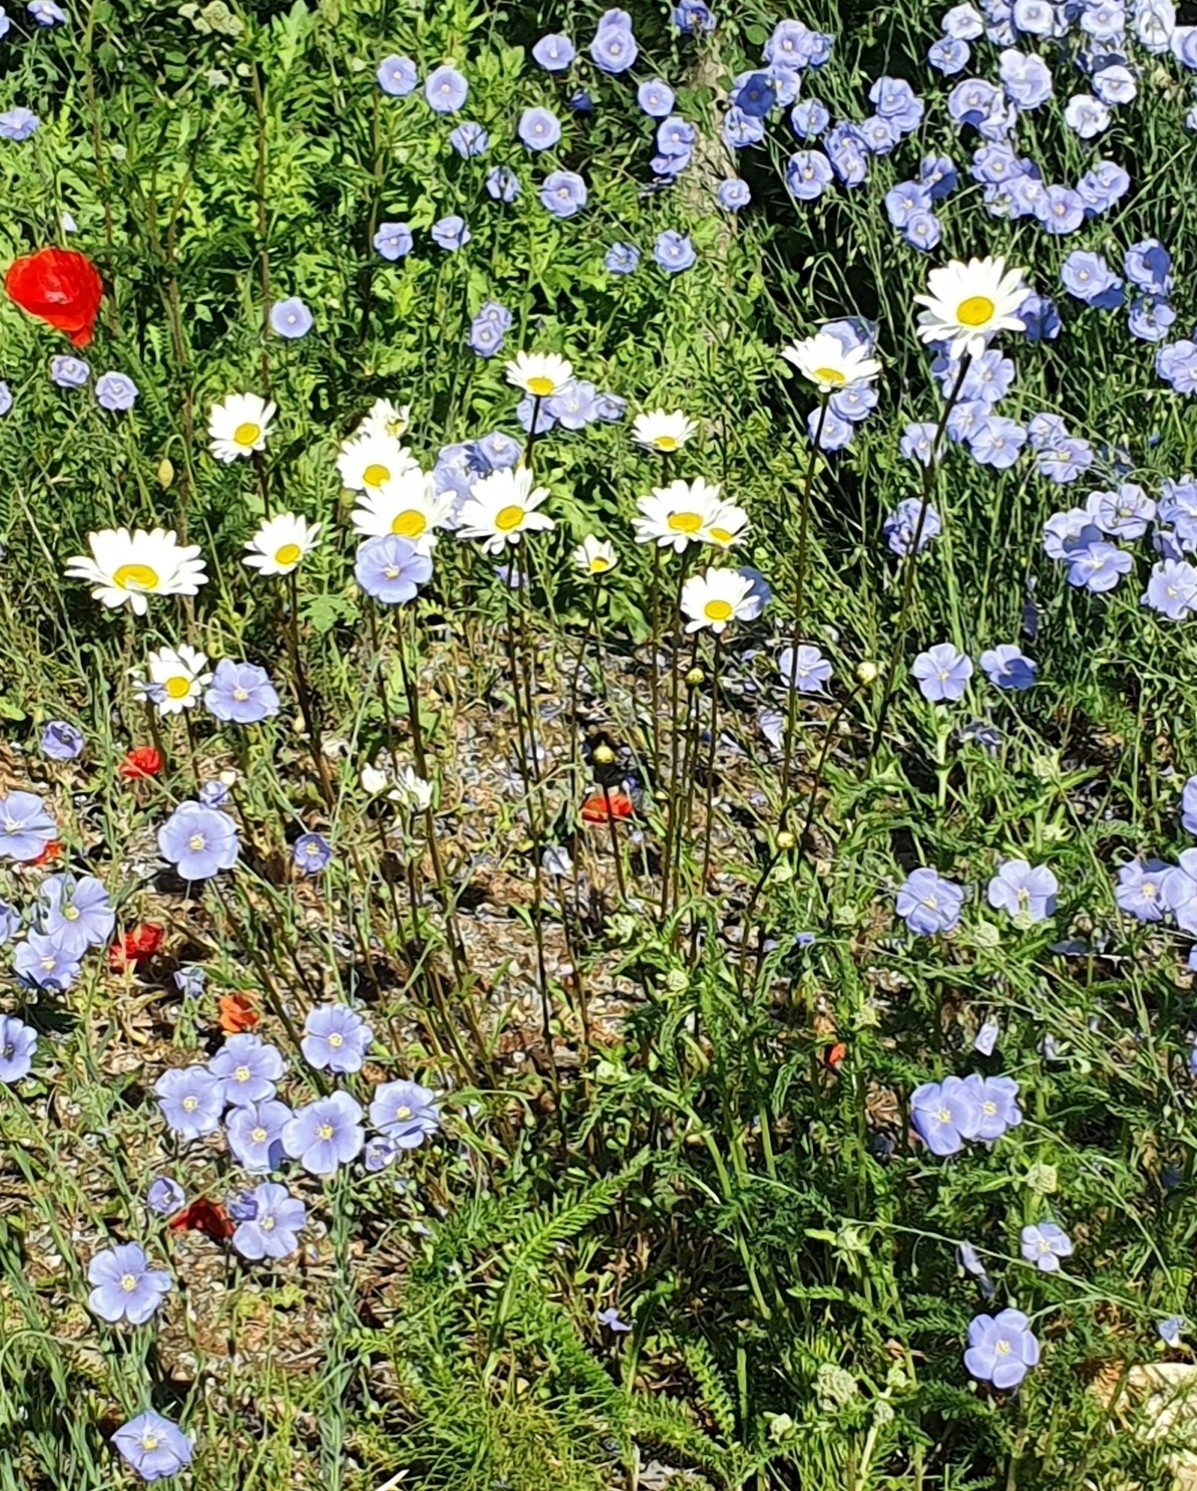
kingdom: Plantae
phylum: Tracheophyta
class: Magnoliopsida
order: Asterales
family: Asteraceae
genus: Leucanthemum
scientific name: Leucanthemum vulgare
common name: Oxeye daisy
